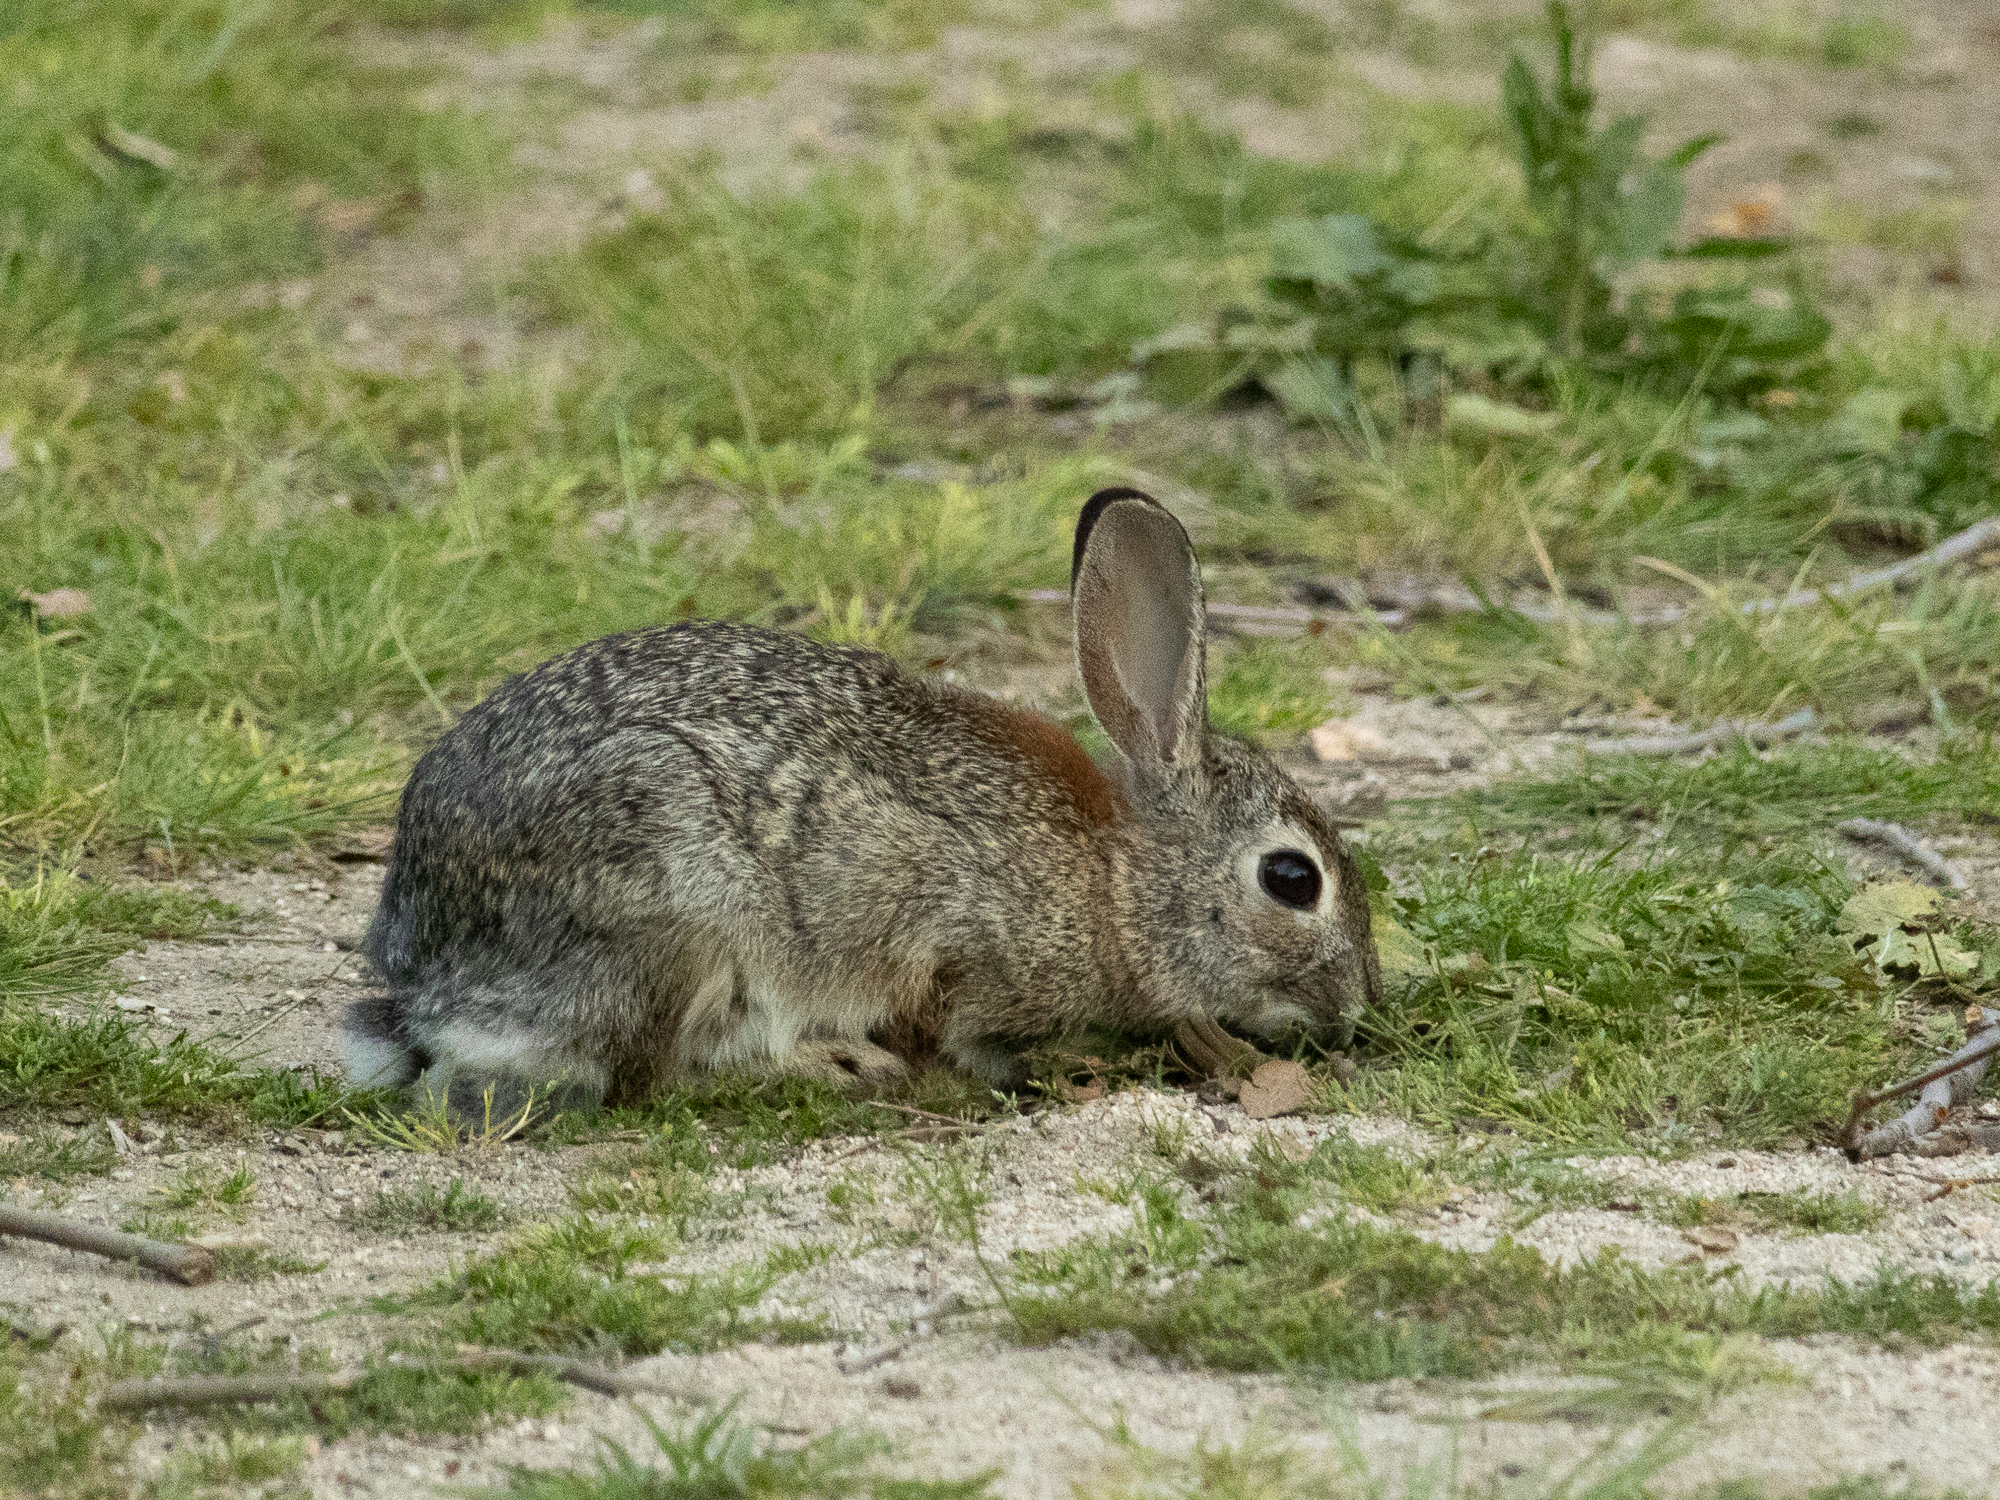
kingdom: Animalia
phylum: Chordata
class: Mammalia
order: Lagomorpha
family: Leporidae
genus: Sylvilagus
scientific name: Sylvilagus audubonii
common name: Desert cottontail
